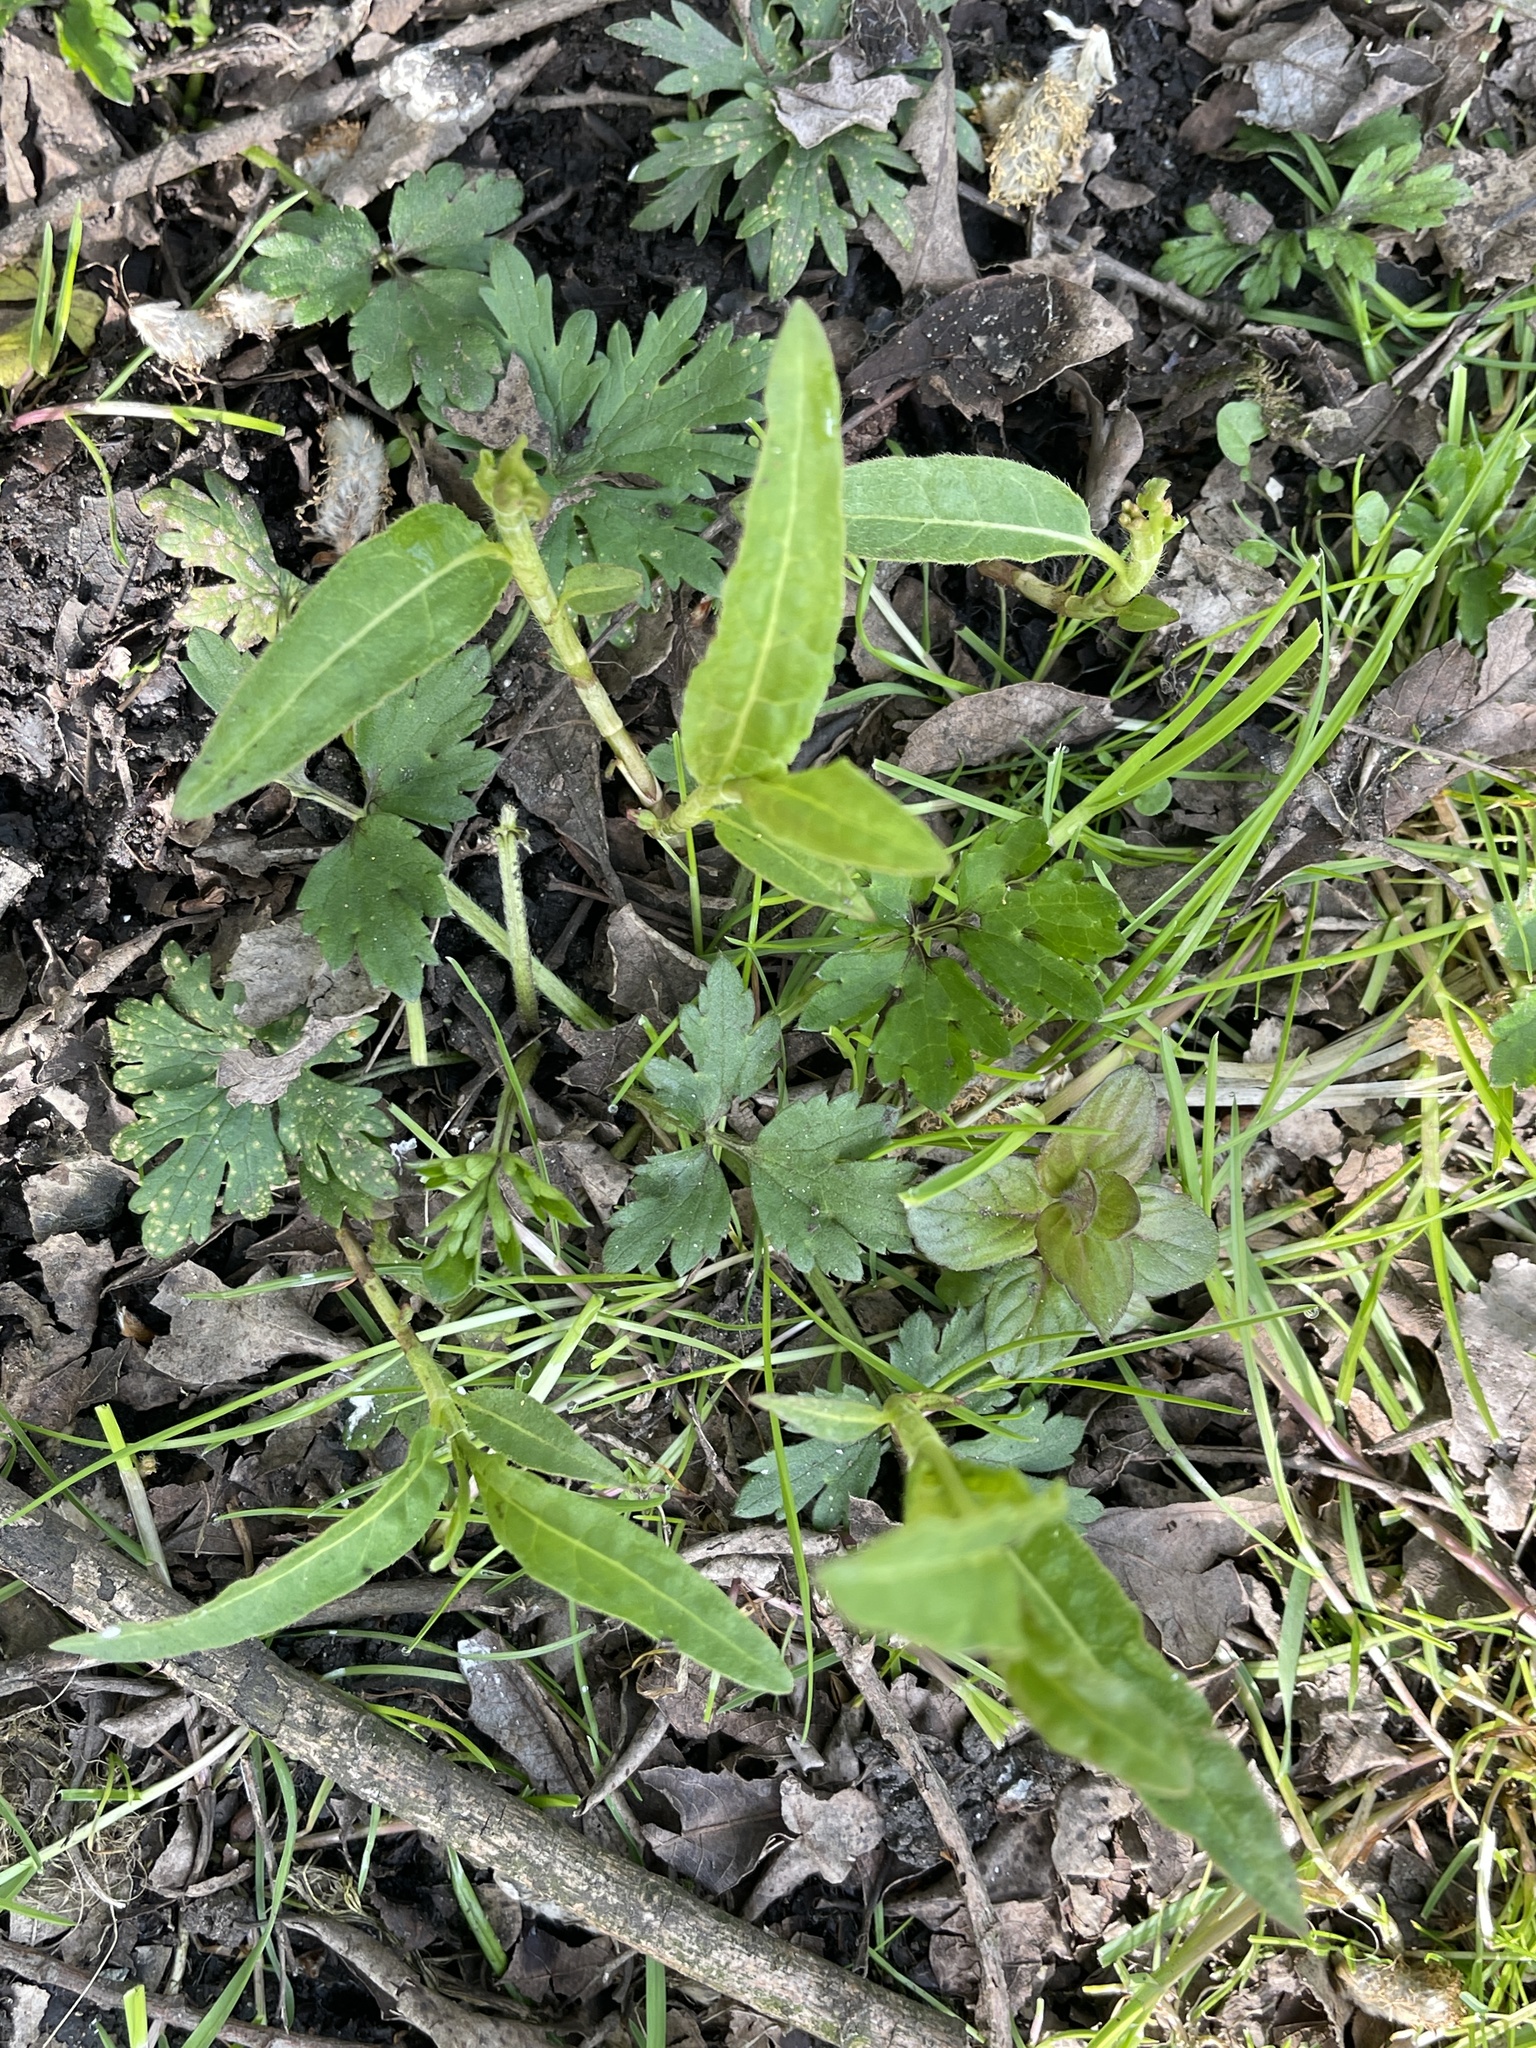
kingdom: Plantae
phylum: Tracheophyta
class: Magnoliopsida
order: Caryophyllales
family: Polygonaceae
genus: Persicaria
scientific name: Persicaria amphibia
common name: Amphibious bistort
